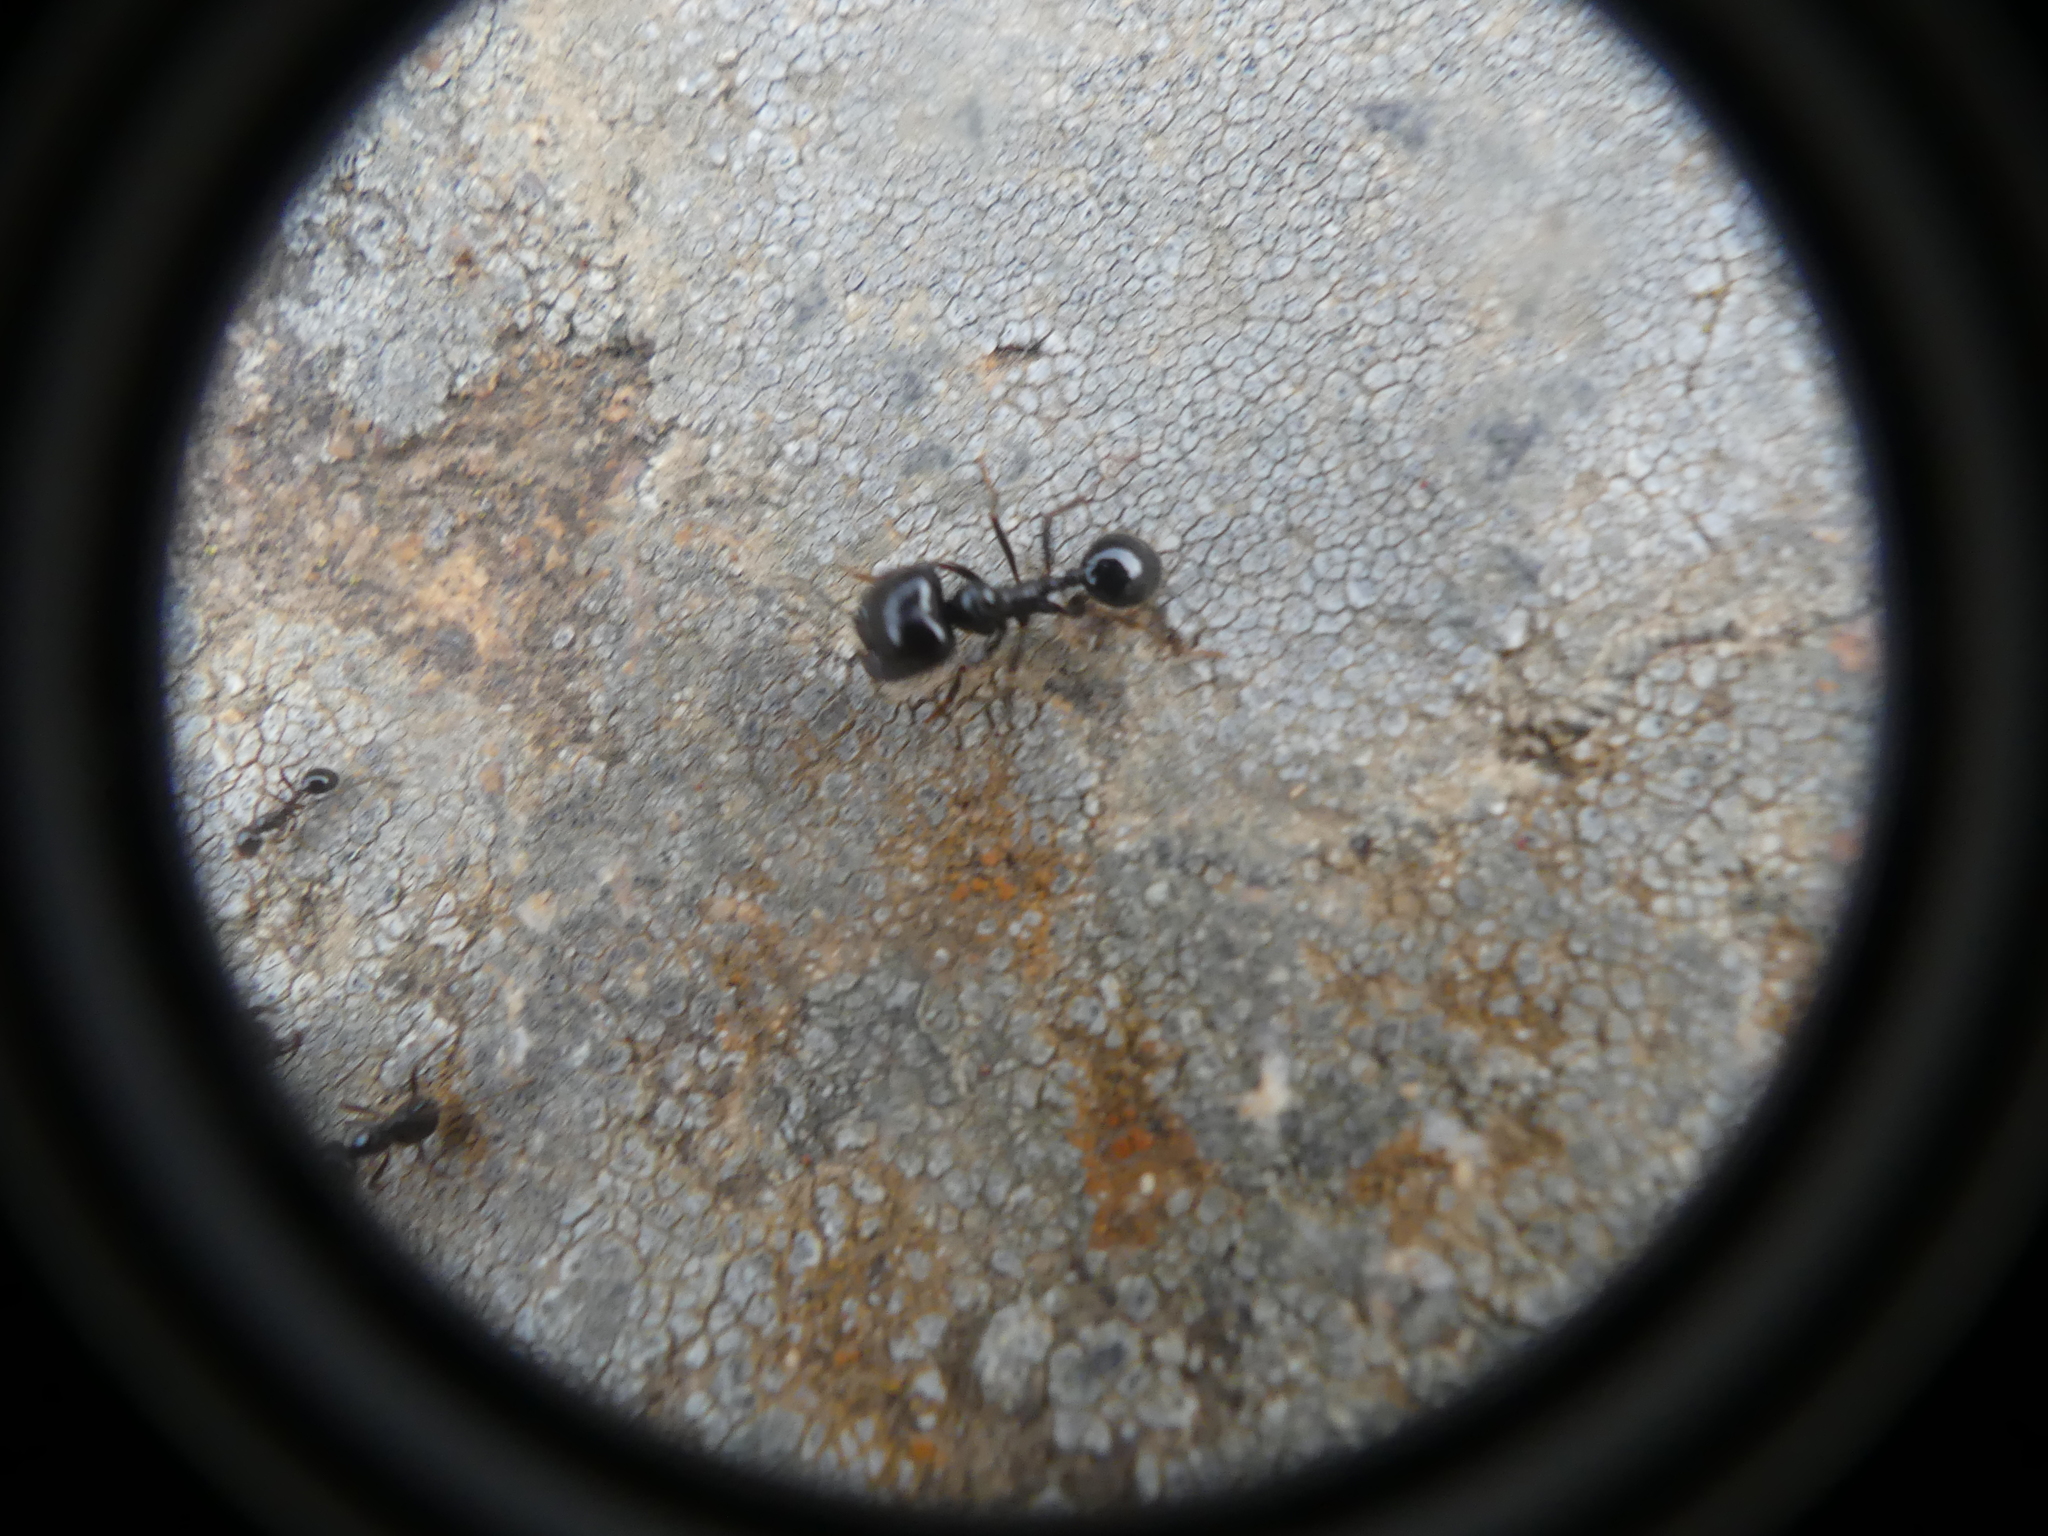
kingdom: Animalia
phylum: Arthropoda
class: Insecta
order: Hymenoptera
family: Formicidae
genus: Messor
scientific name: Messor capitatus
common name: European seed harvesting ant
